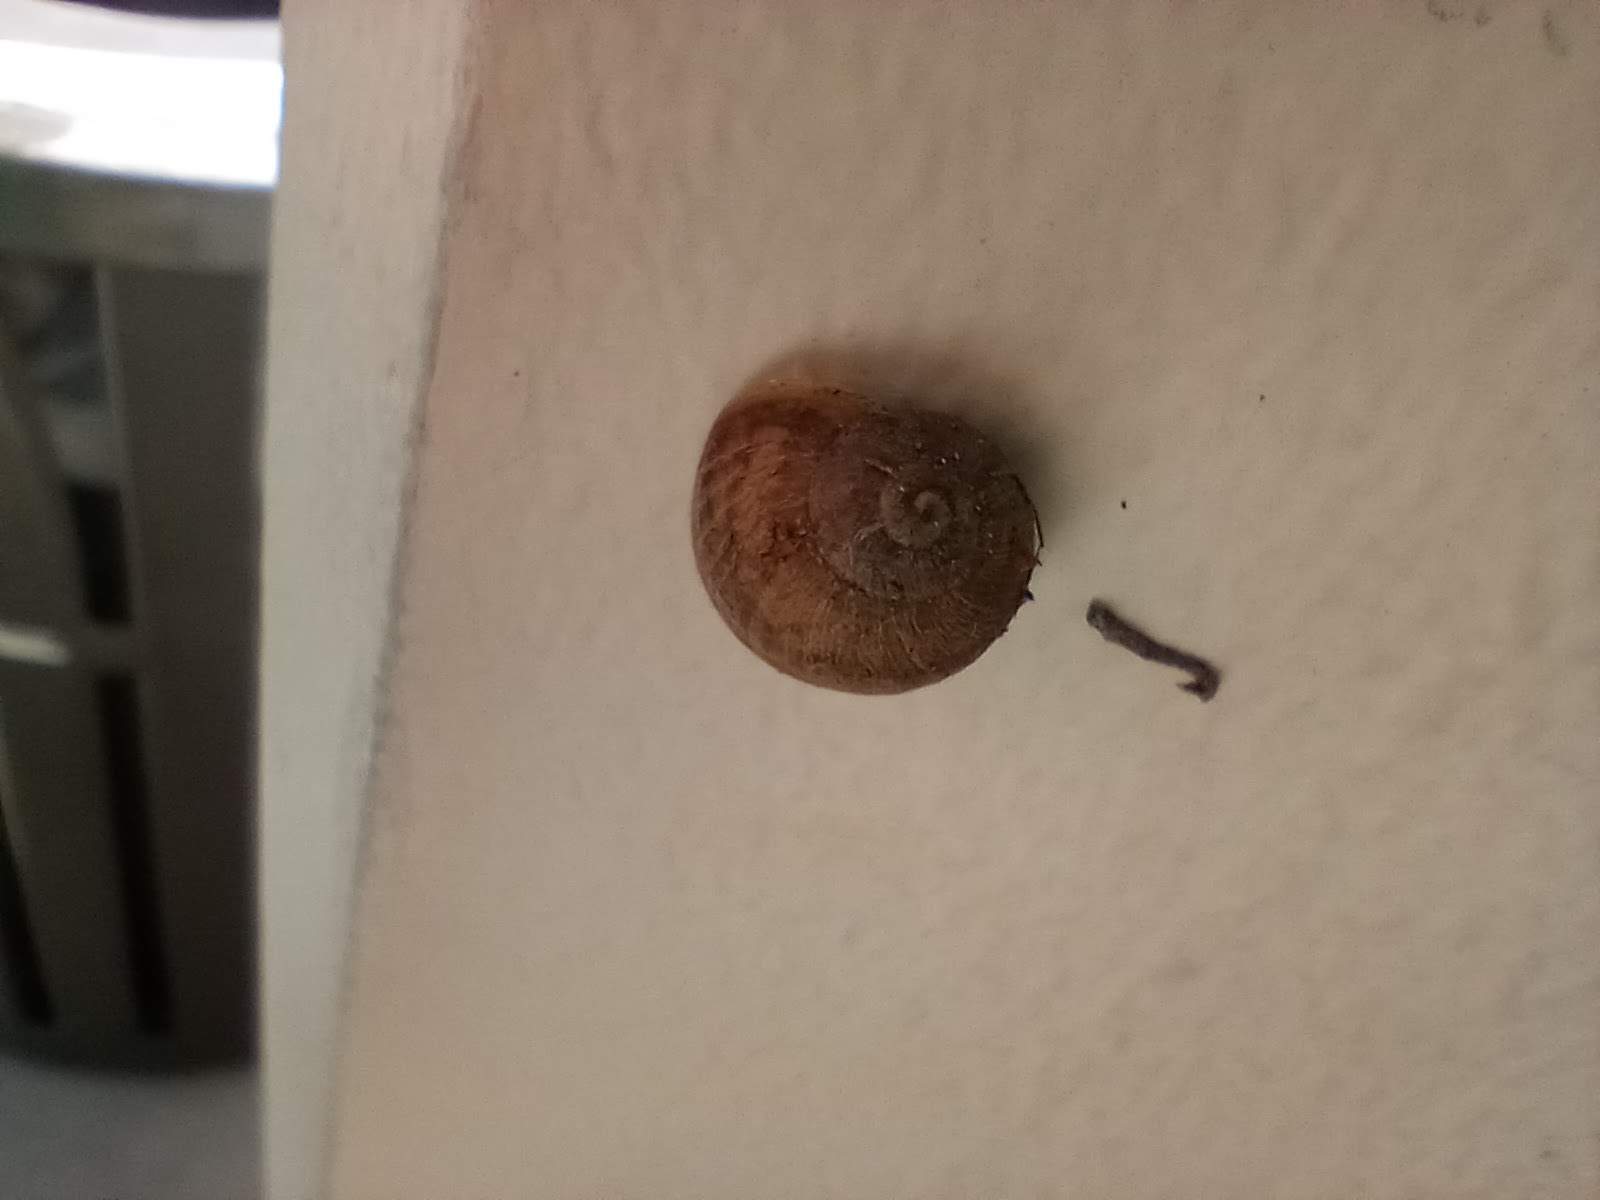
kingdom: Animalia
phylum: Mollusca
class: Gastropoda
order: Stylommatophora
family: Helicidae
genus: Cornu
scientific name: Cornu aspersum
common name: Brown garden snail
